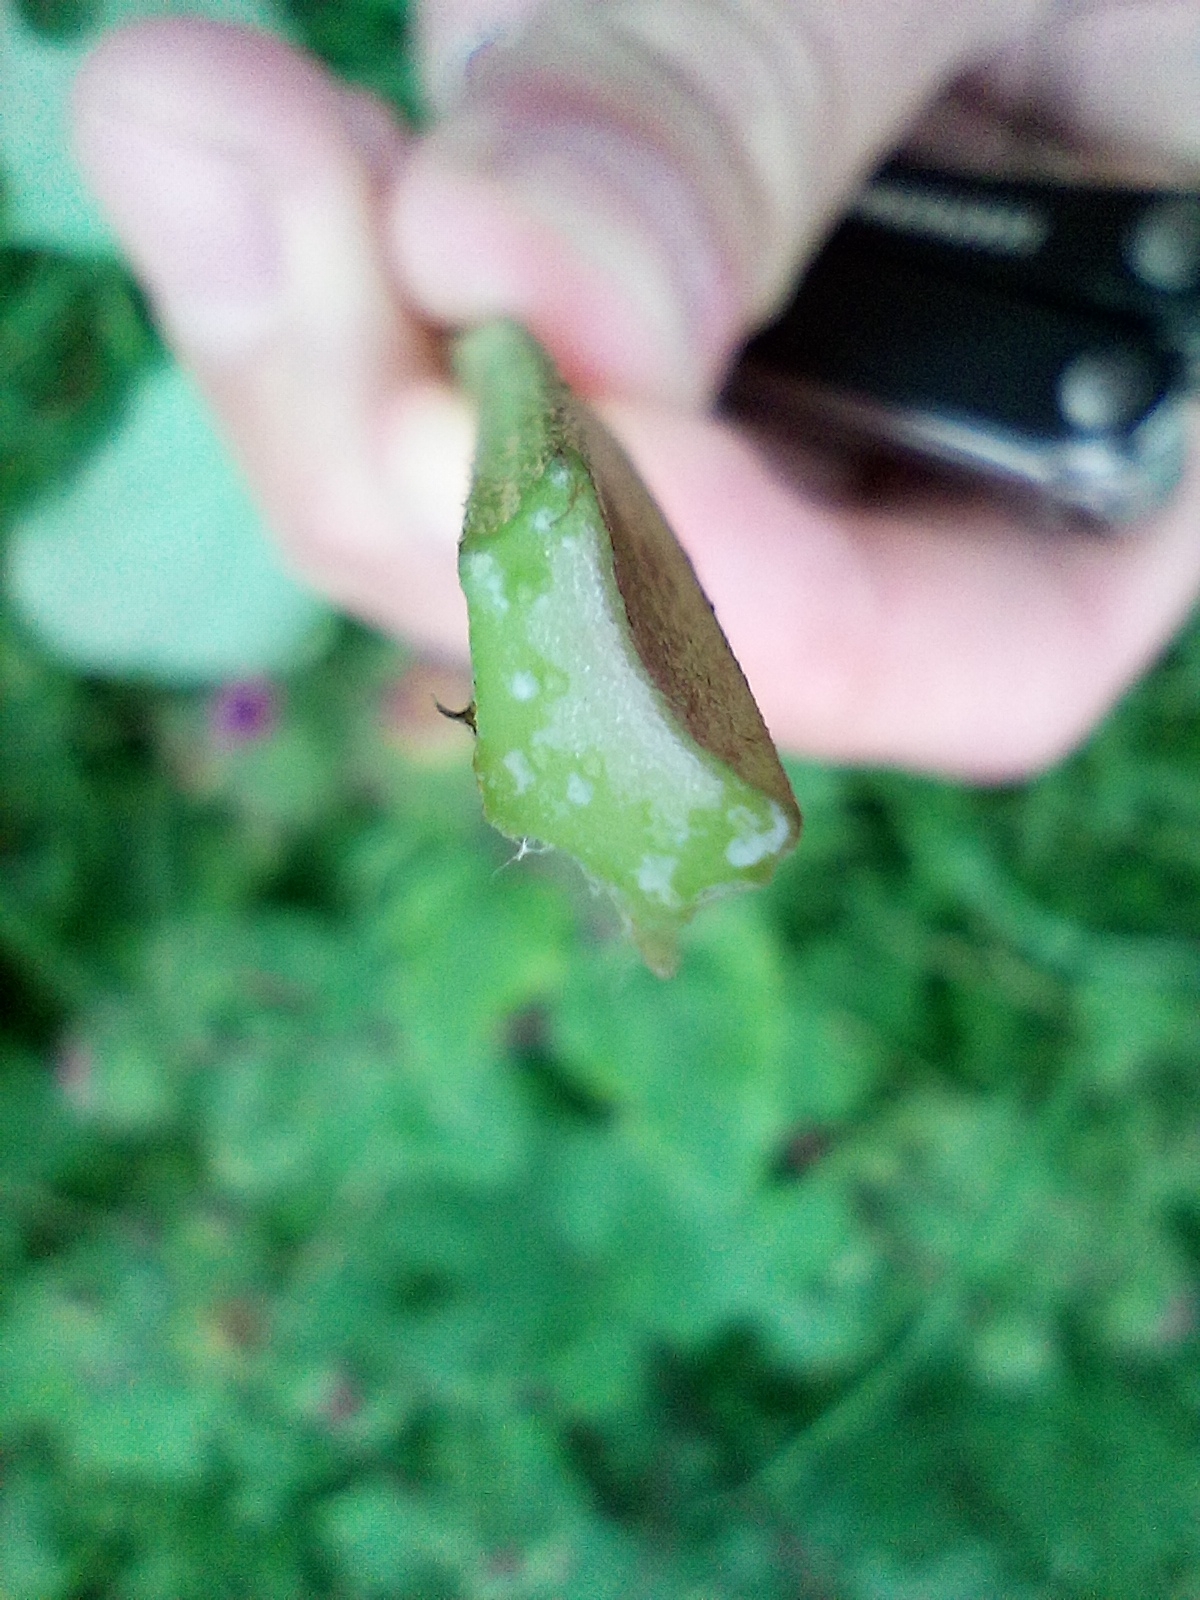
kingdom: Plantae
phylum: Tracheophyta
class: Magnoliopsida
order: Asterales
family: Asteraceae
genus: Arctium
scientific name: Arctium lappa
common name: Greater burdock
